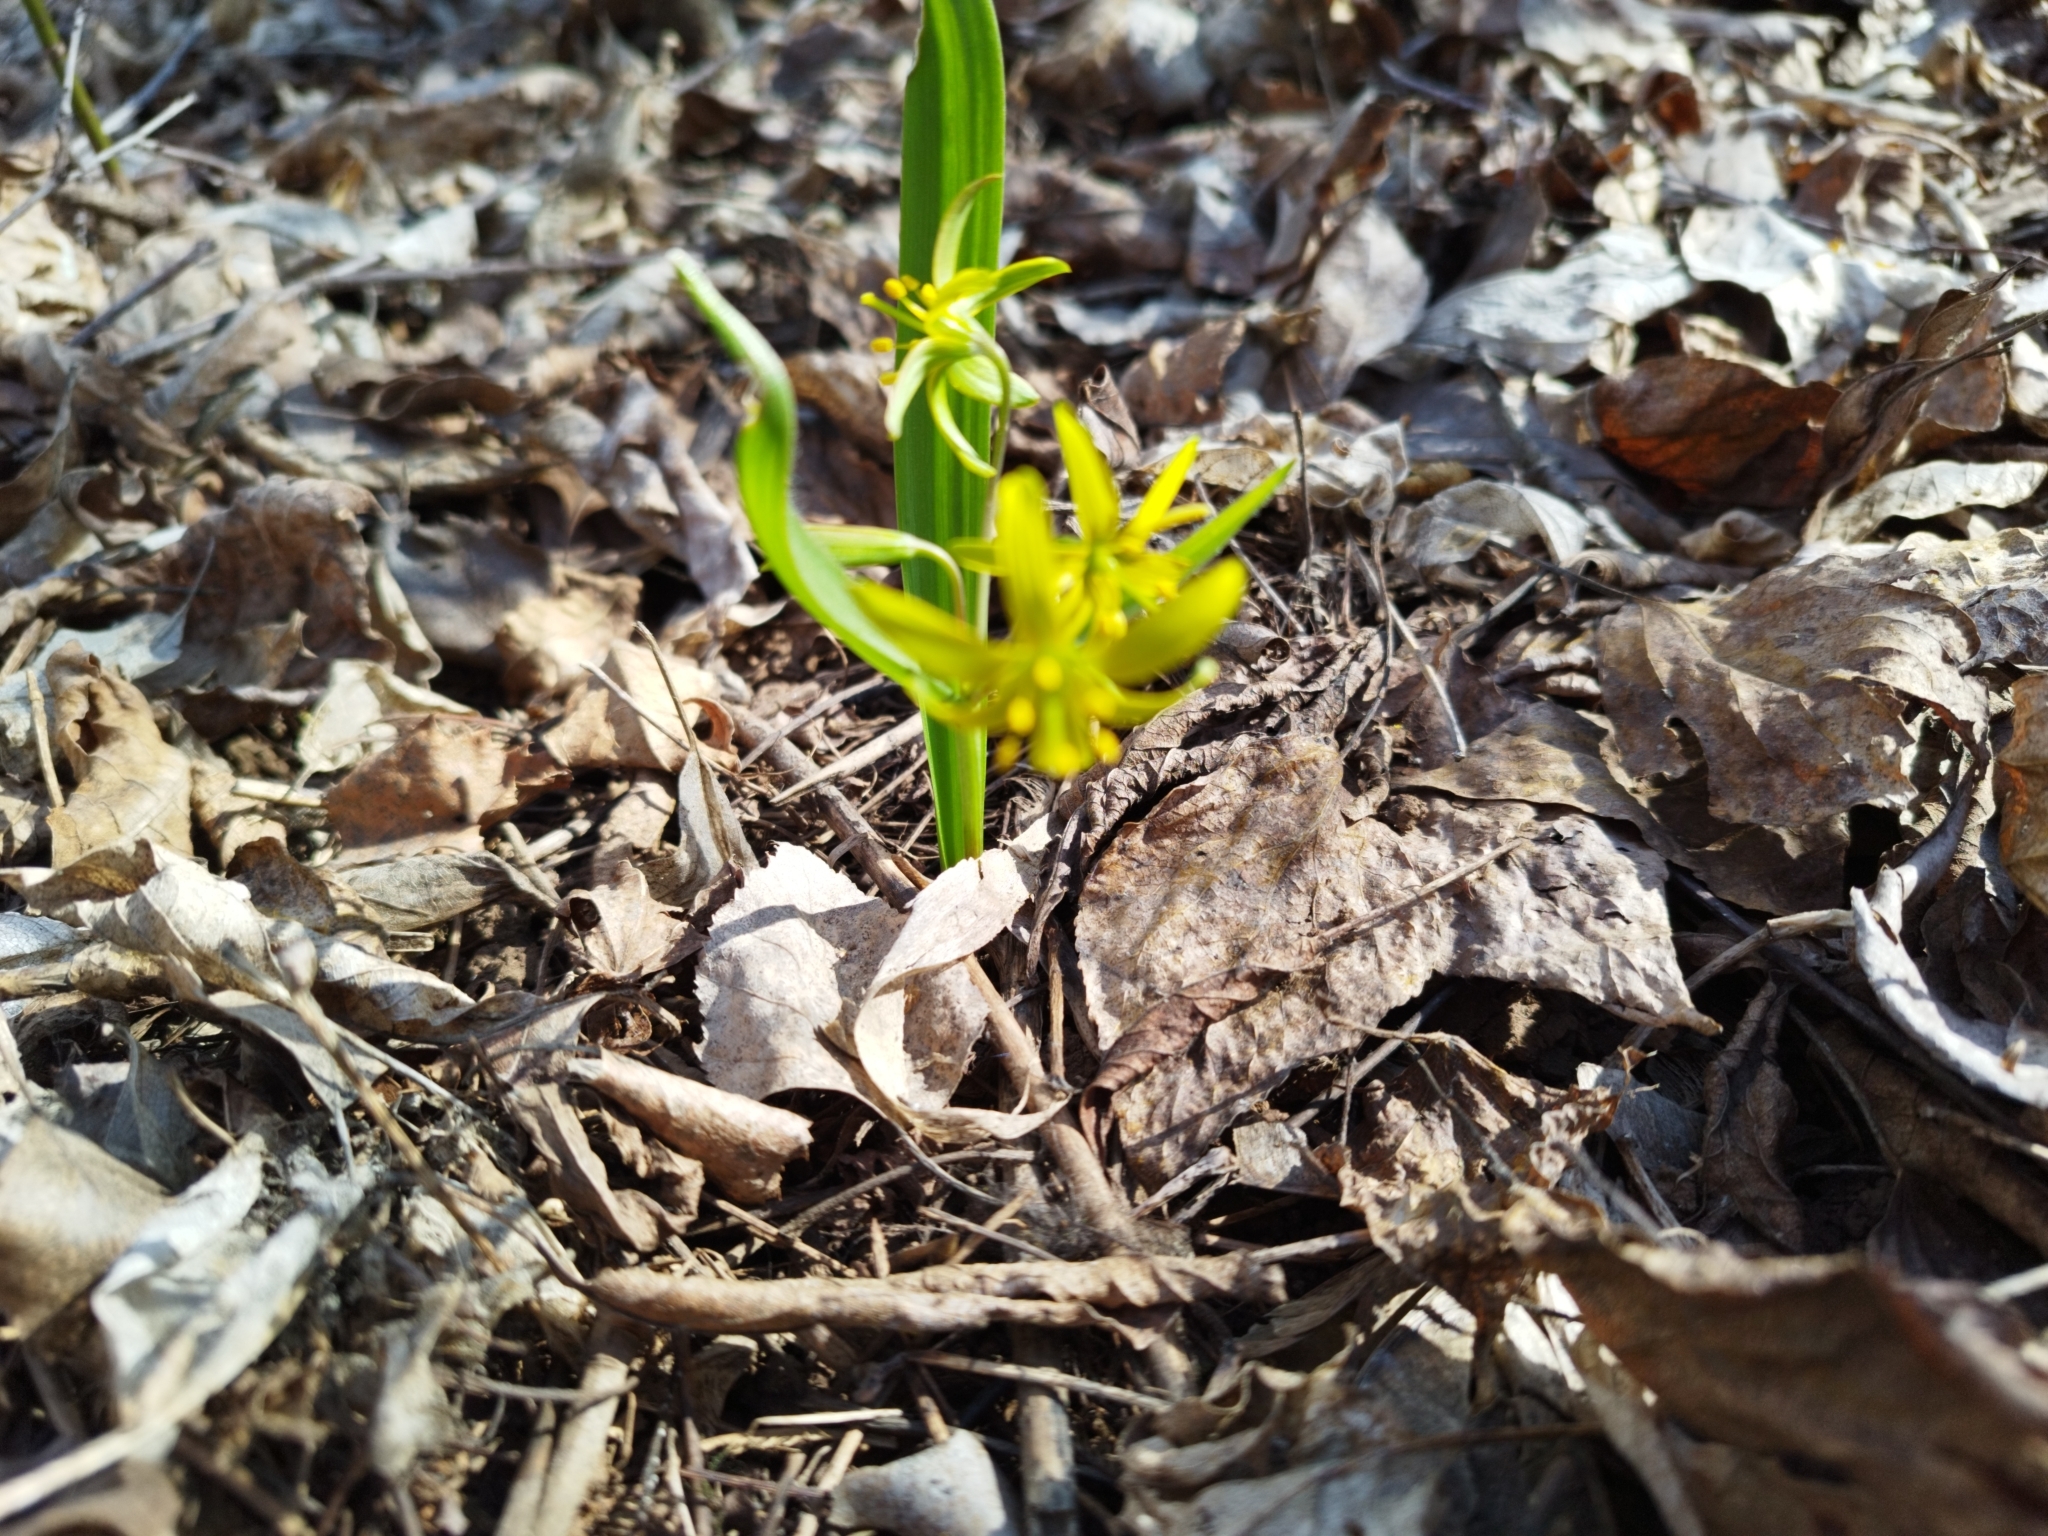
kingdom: Plantae
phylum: Tracheophyta
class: Liliopsida
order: Liliales
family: Liliaceae
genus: Gagea
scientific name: Gagea lutea
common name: Yellow star-of-bethlehem
